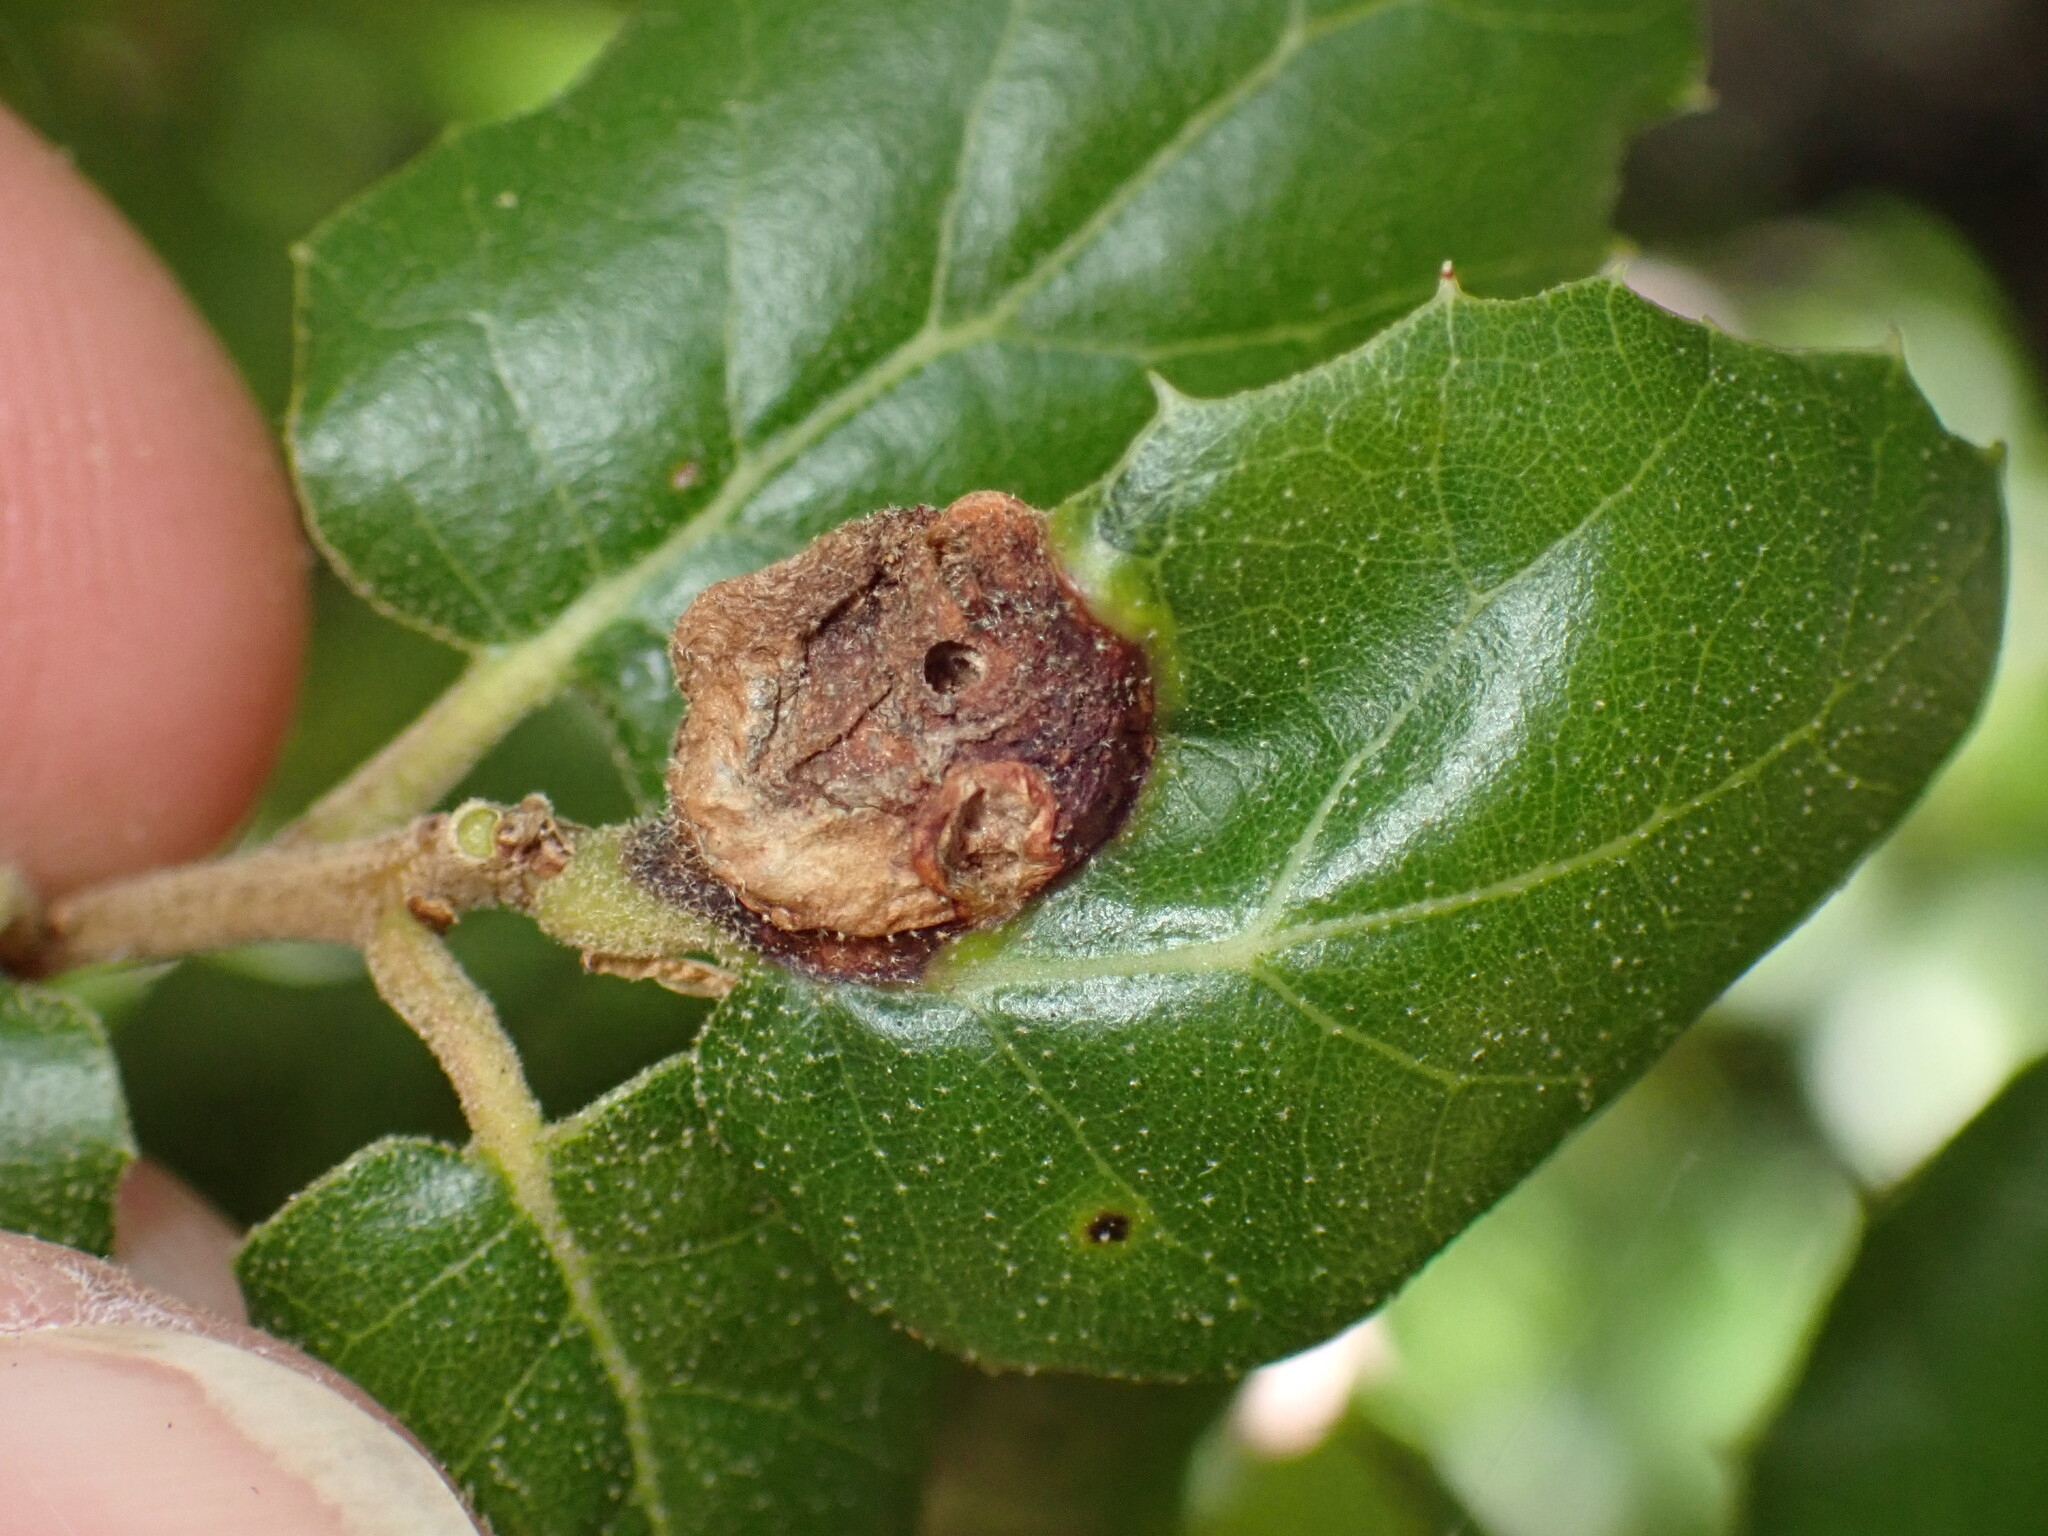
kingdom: Animalia
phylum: Arthropoda
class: Insecta
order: Hymenoptera
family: Cynipidae
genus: Callirhytis
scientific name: Callirhytis
